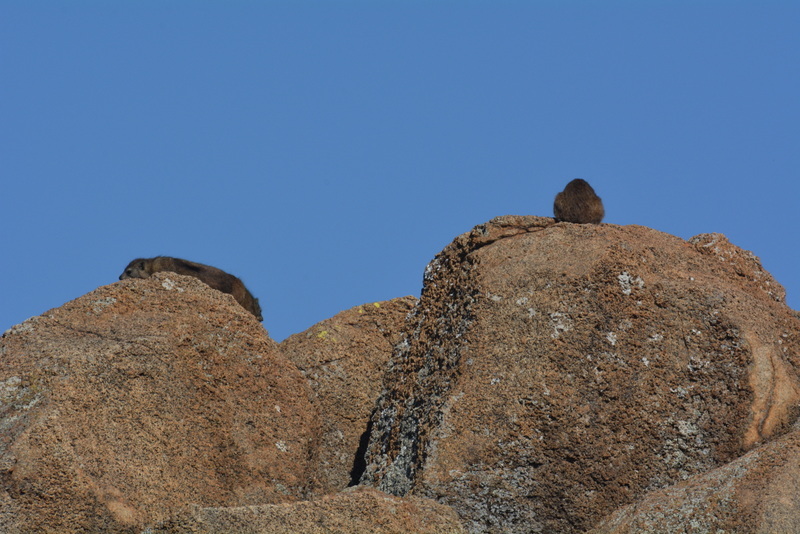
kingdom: Animalia
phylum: Chordata
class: Mammalia
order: Hyracoidea
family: Procaviidae
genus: Procavia
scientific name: Procavia capensis
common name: Rock hyrax
